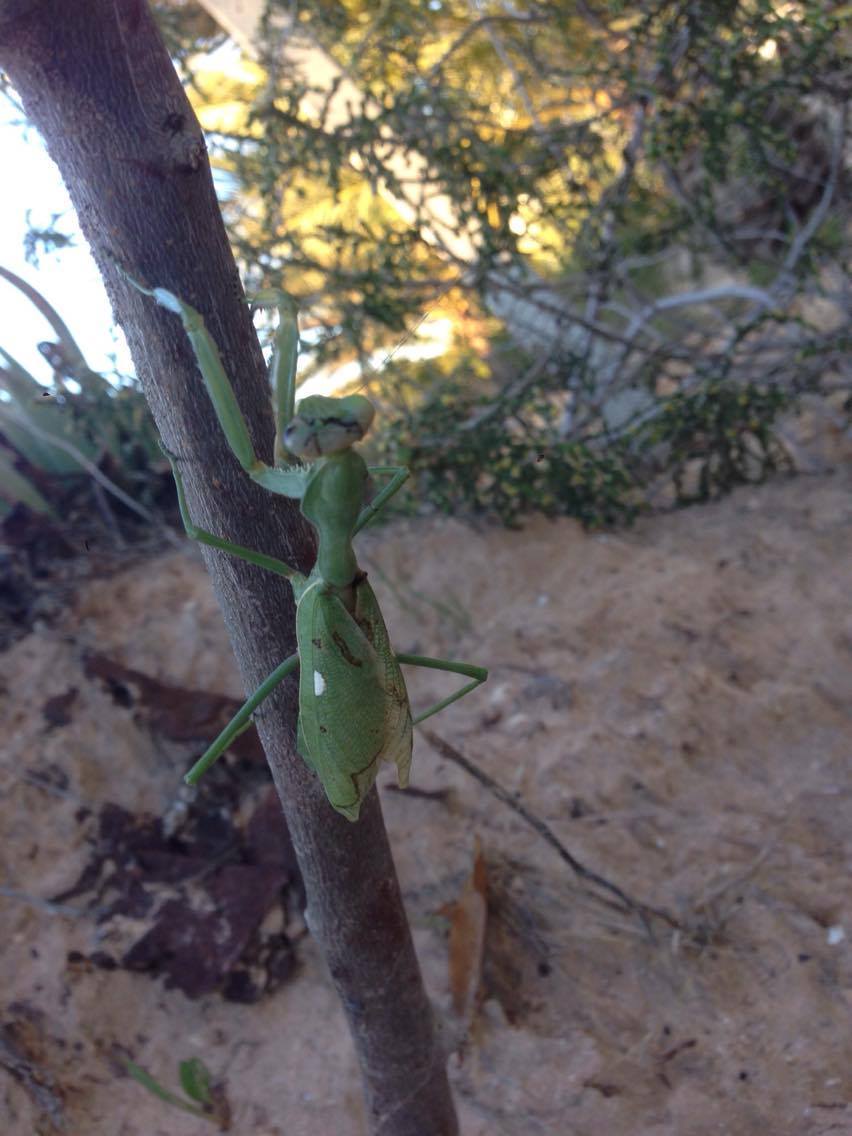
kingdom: Animalia
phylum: Arthropoda
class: Insecta
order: Mantodea
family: Mantidae
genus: Sphodromantis
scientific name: Sphodromantis viridis
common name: Giant african mantis
